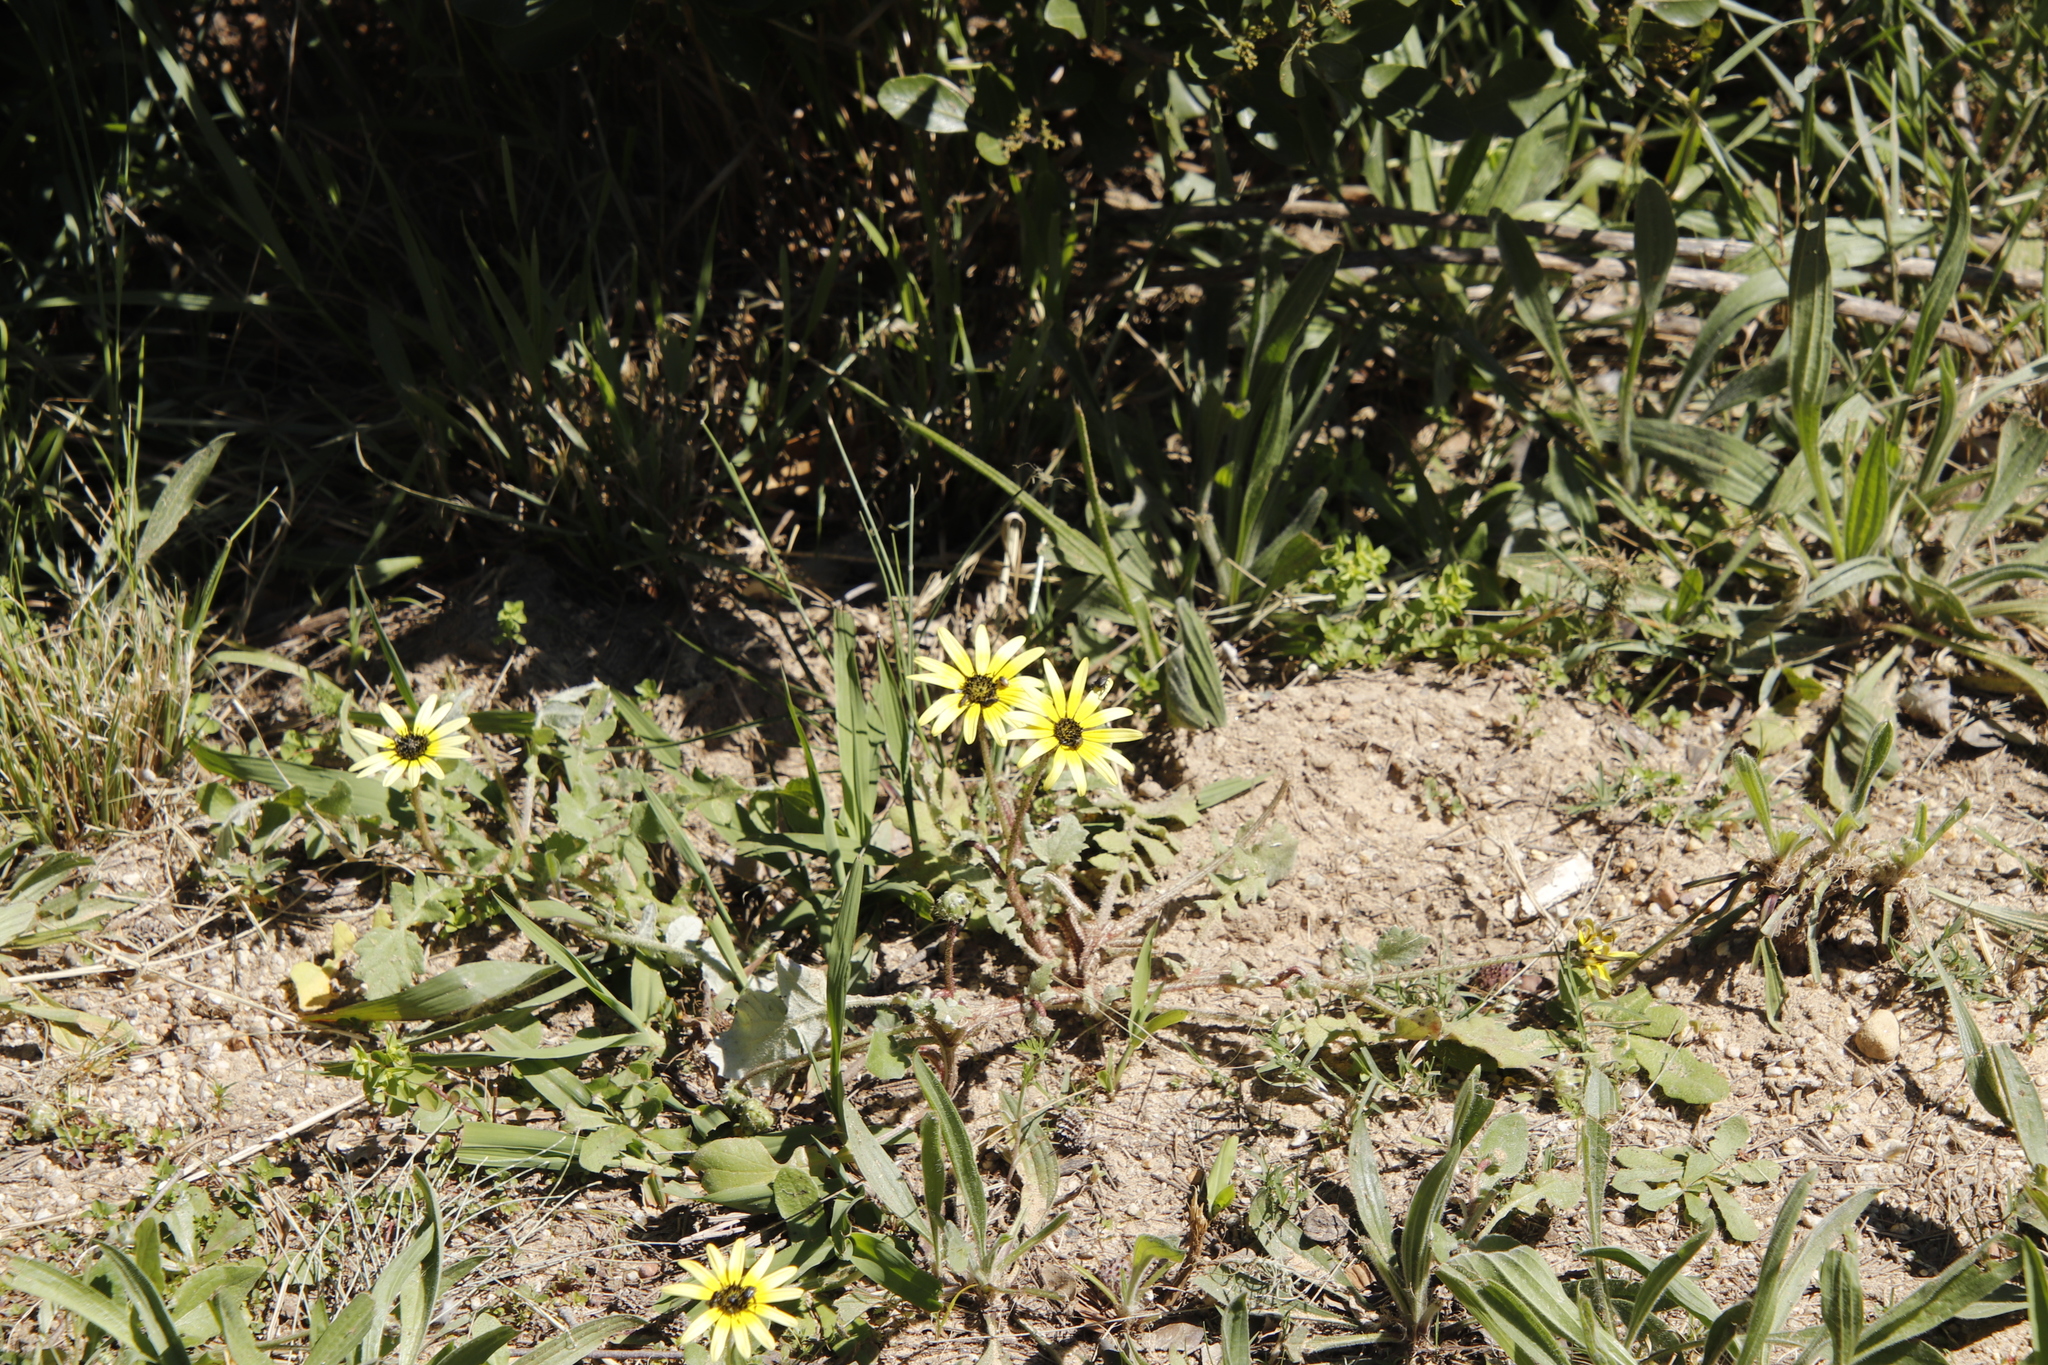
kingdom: Plantae
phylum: Tracheophyta
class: Magnoliopsida
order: Asterales
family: Asteraceae
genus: Arctotheca
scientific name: Arctotheca calendula
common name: Capeweed
